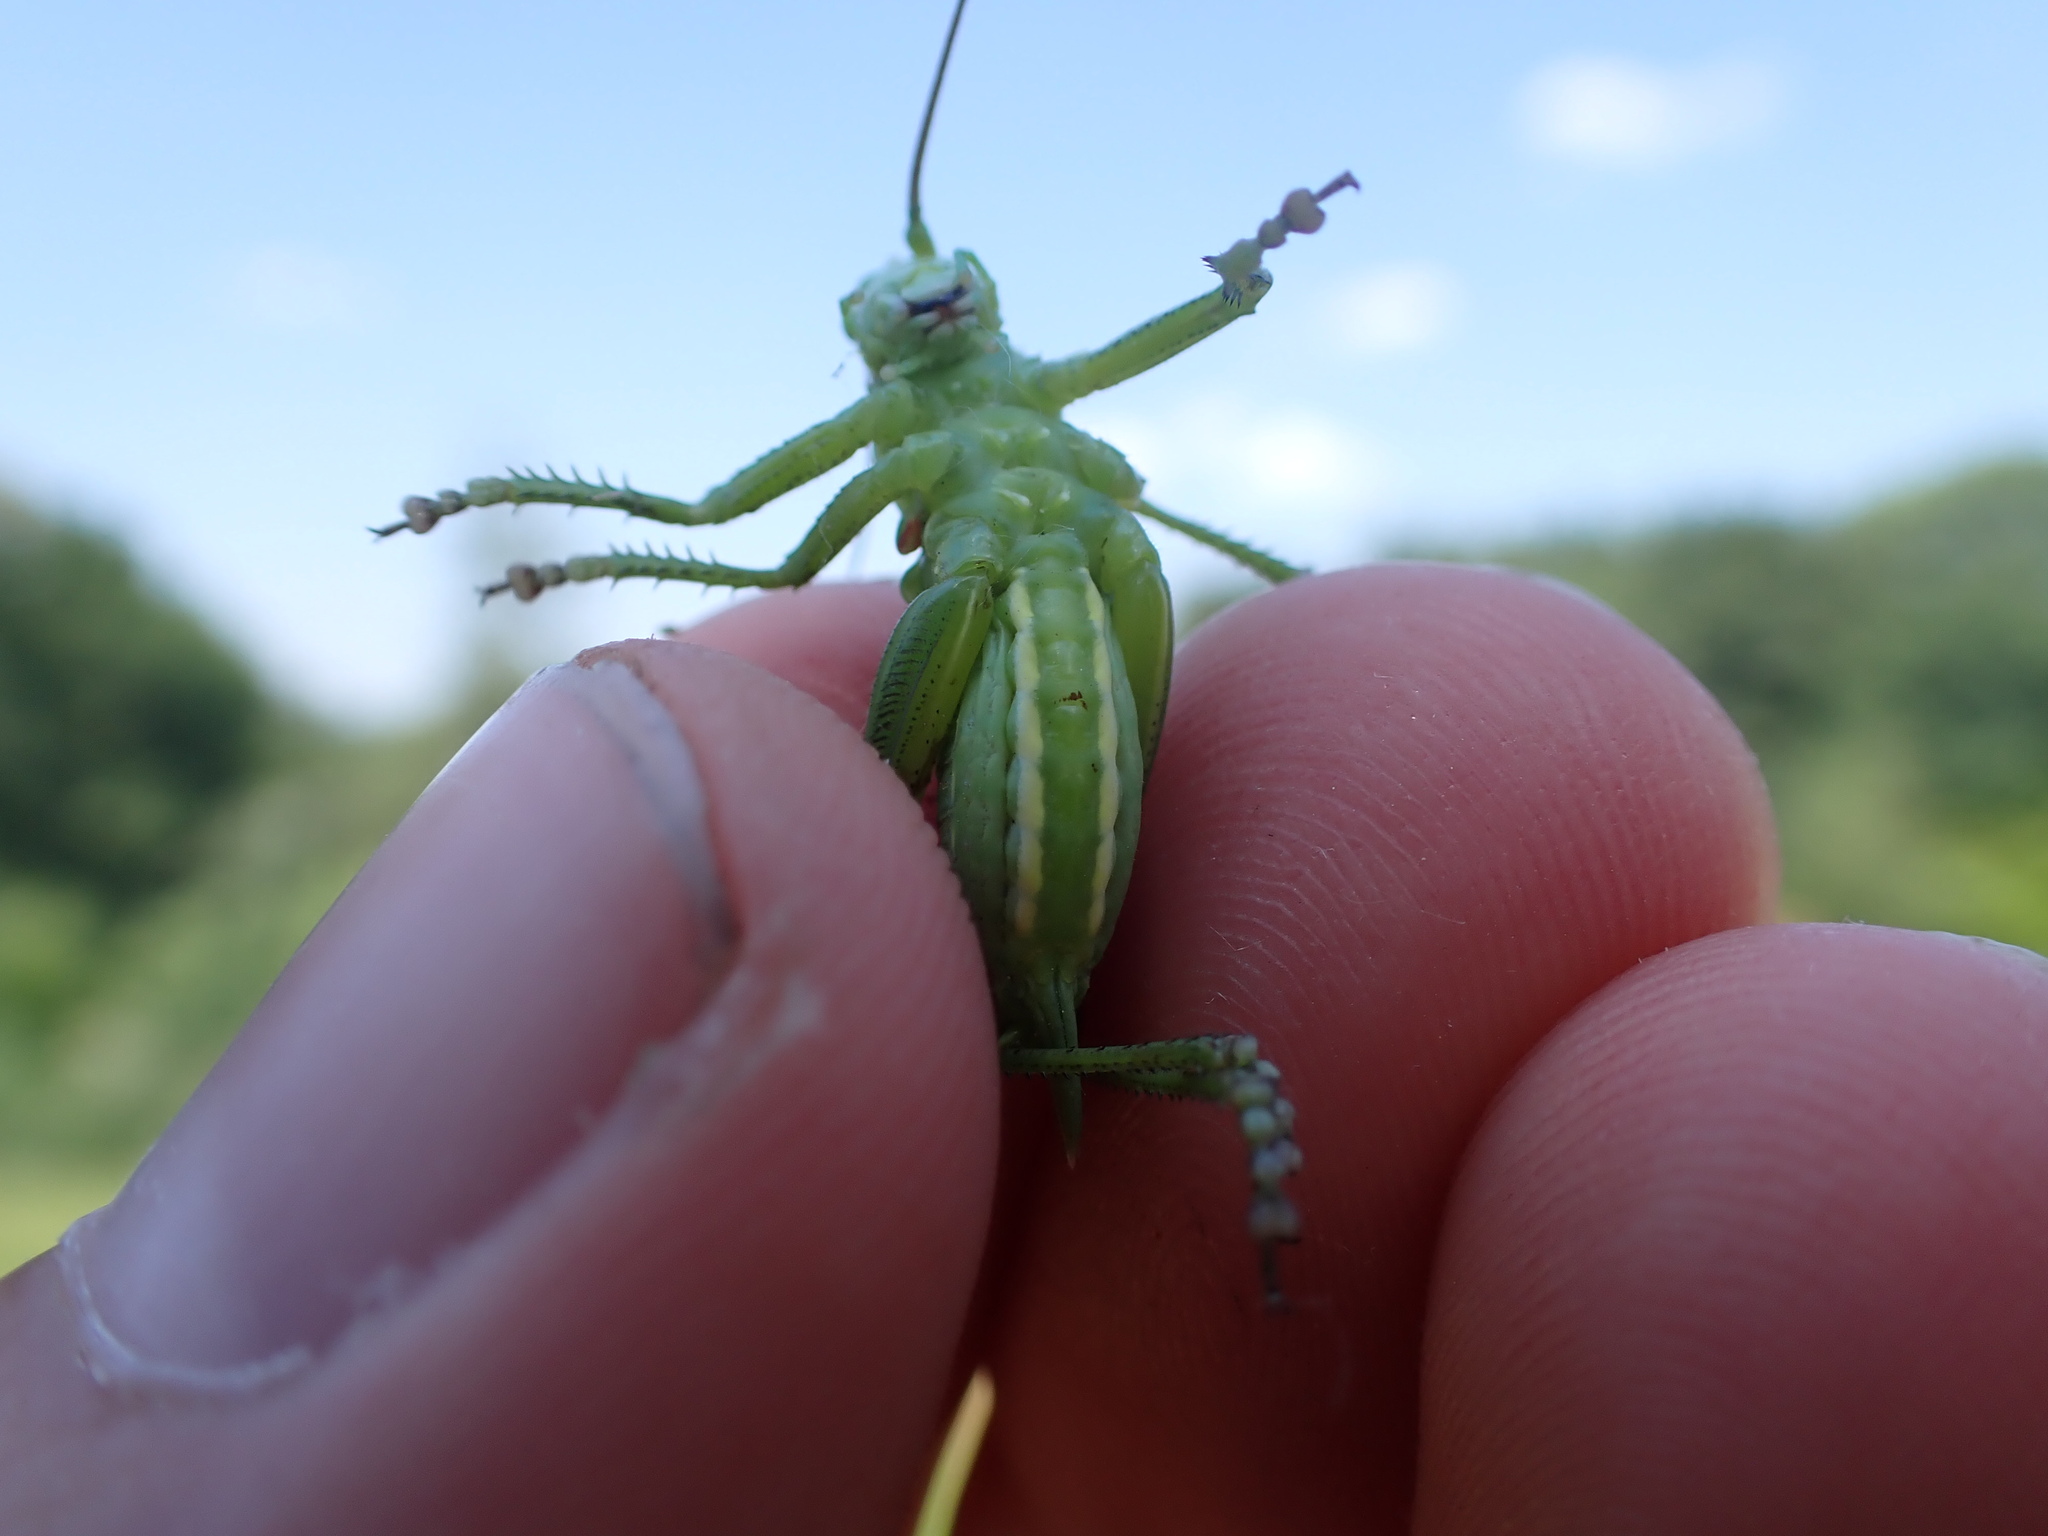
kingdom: Animalia
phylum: Arthropoda
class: Insecta
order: Orthoptera
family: Tettigoniidae
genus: Tettigonia
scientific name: Tettigonia viridissima
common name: Great green bush-cricket
